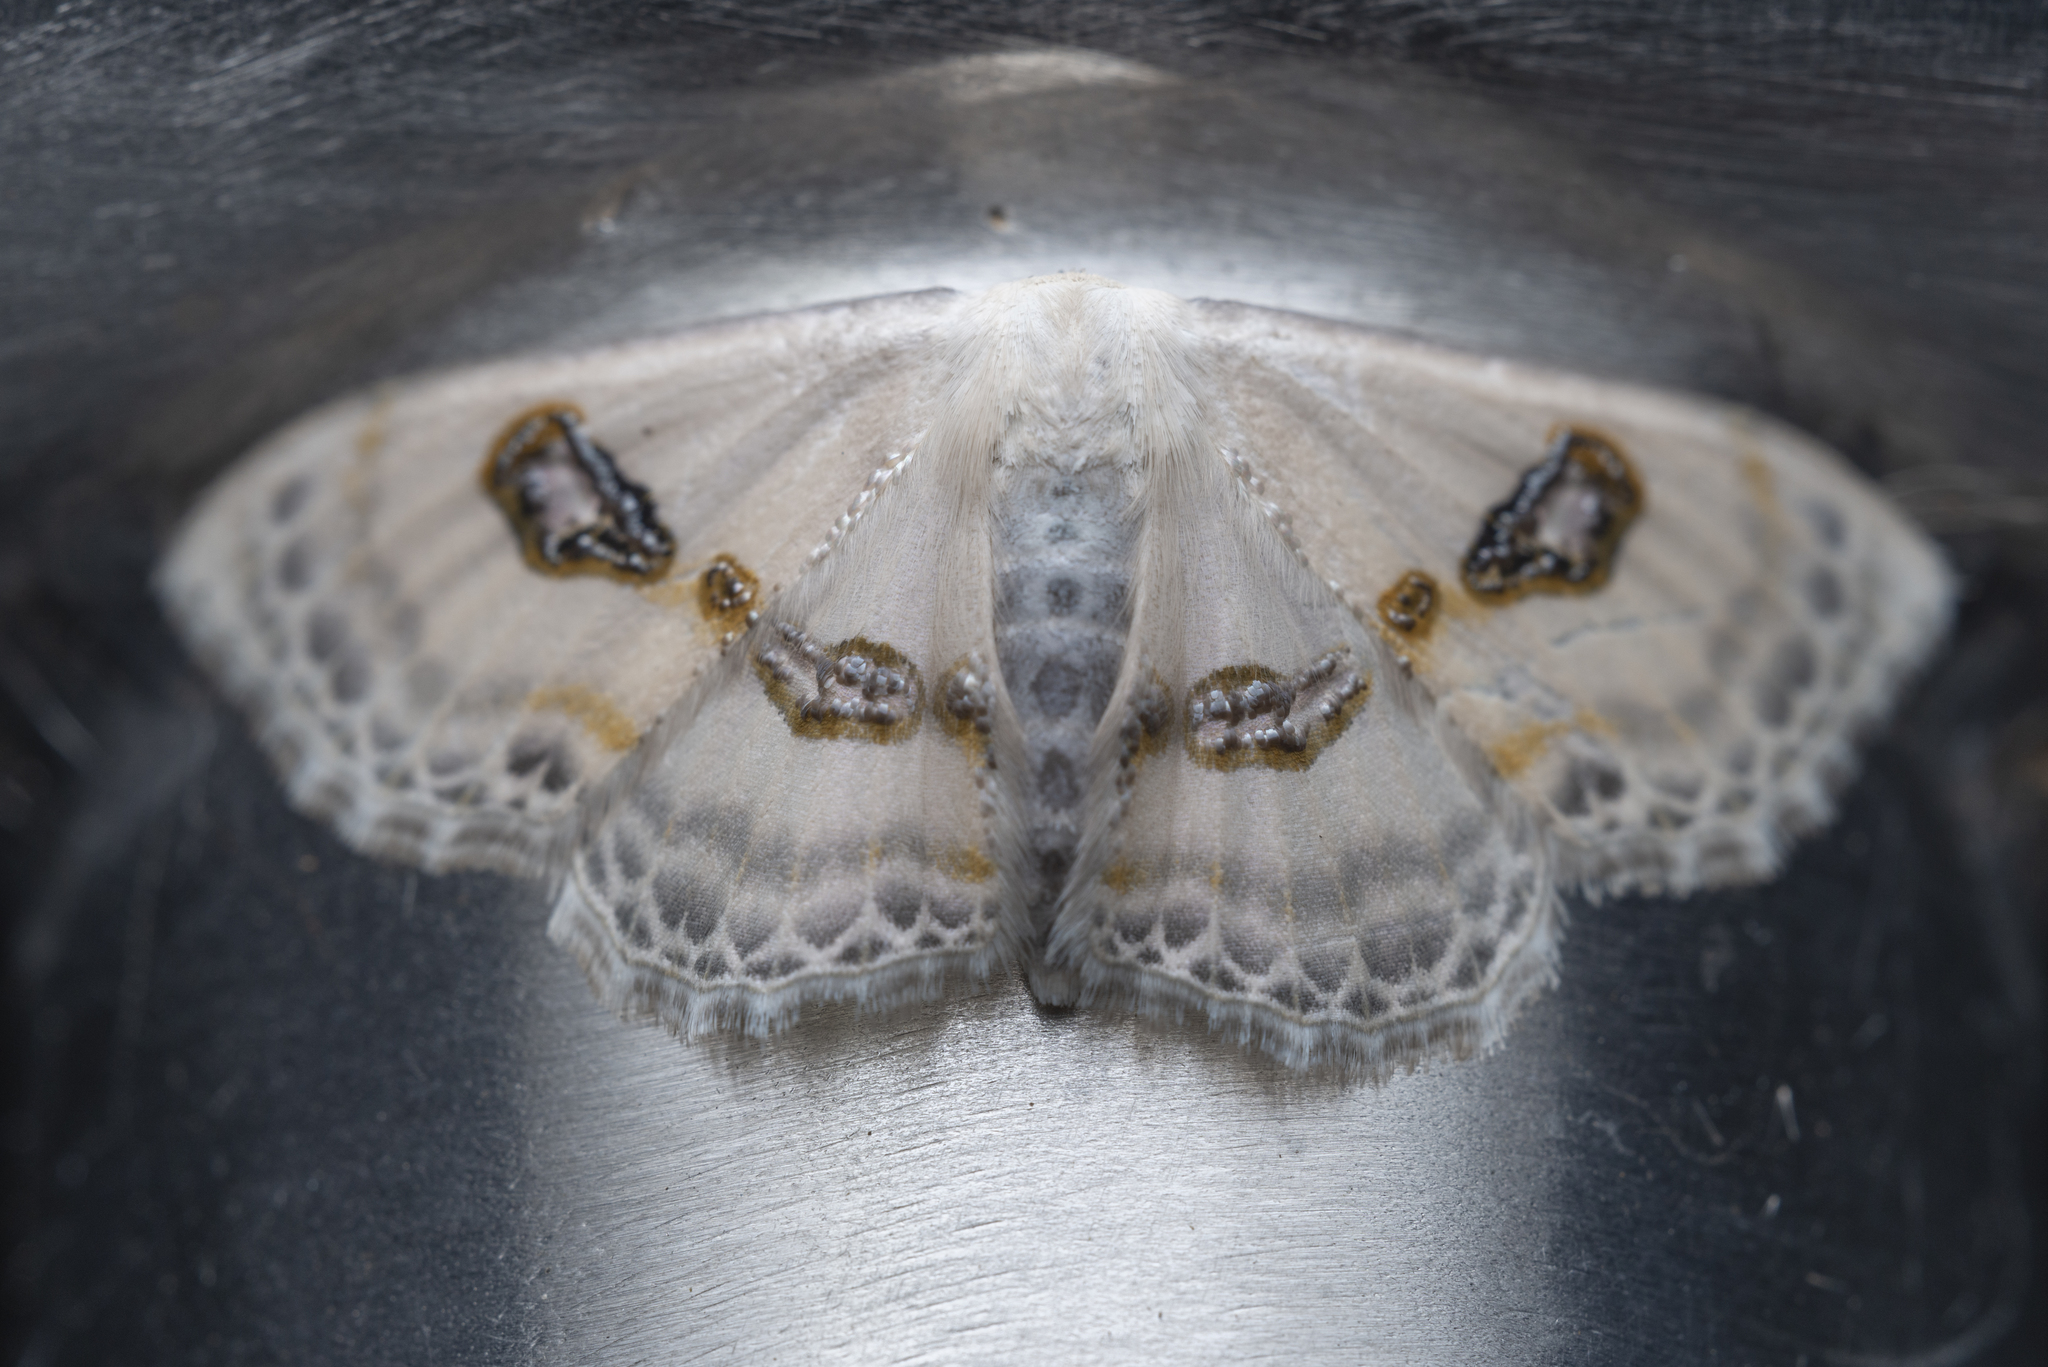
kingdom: Animalia
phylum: Arthropoda
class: Insecta
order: Lepidoptera
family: Geometridae
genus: Problepsis
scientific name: Problepsis vulgaris
